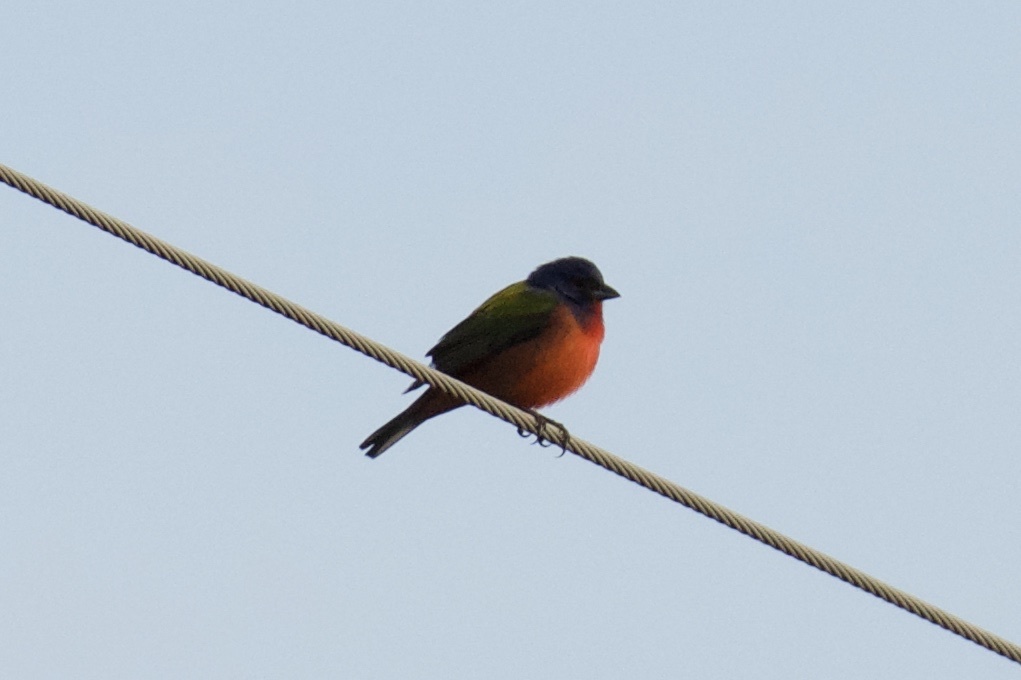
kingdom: Animalia
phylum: Chordata
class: Aves
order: Passeriformes
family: Cardinalidae
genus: Passerina
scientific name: Passerina ciris
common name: Painted bunting
